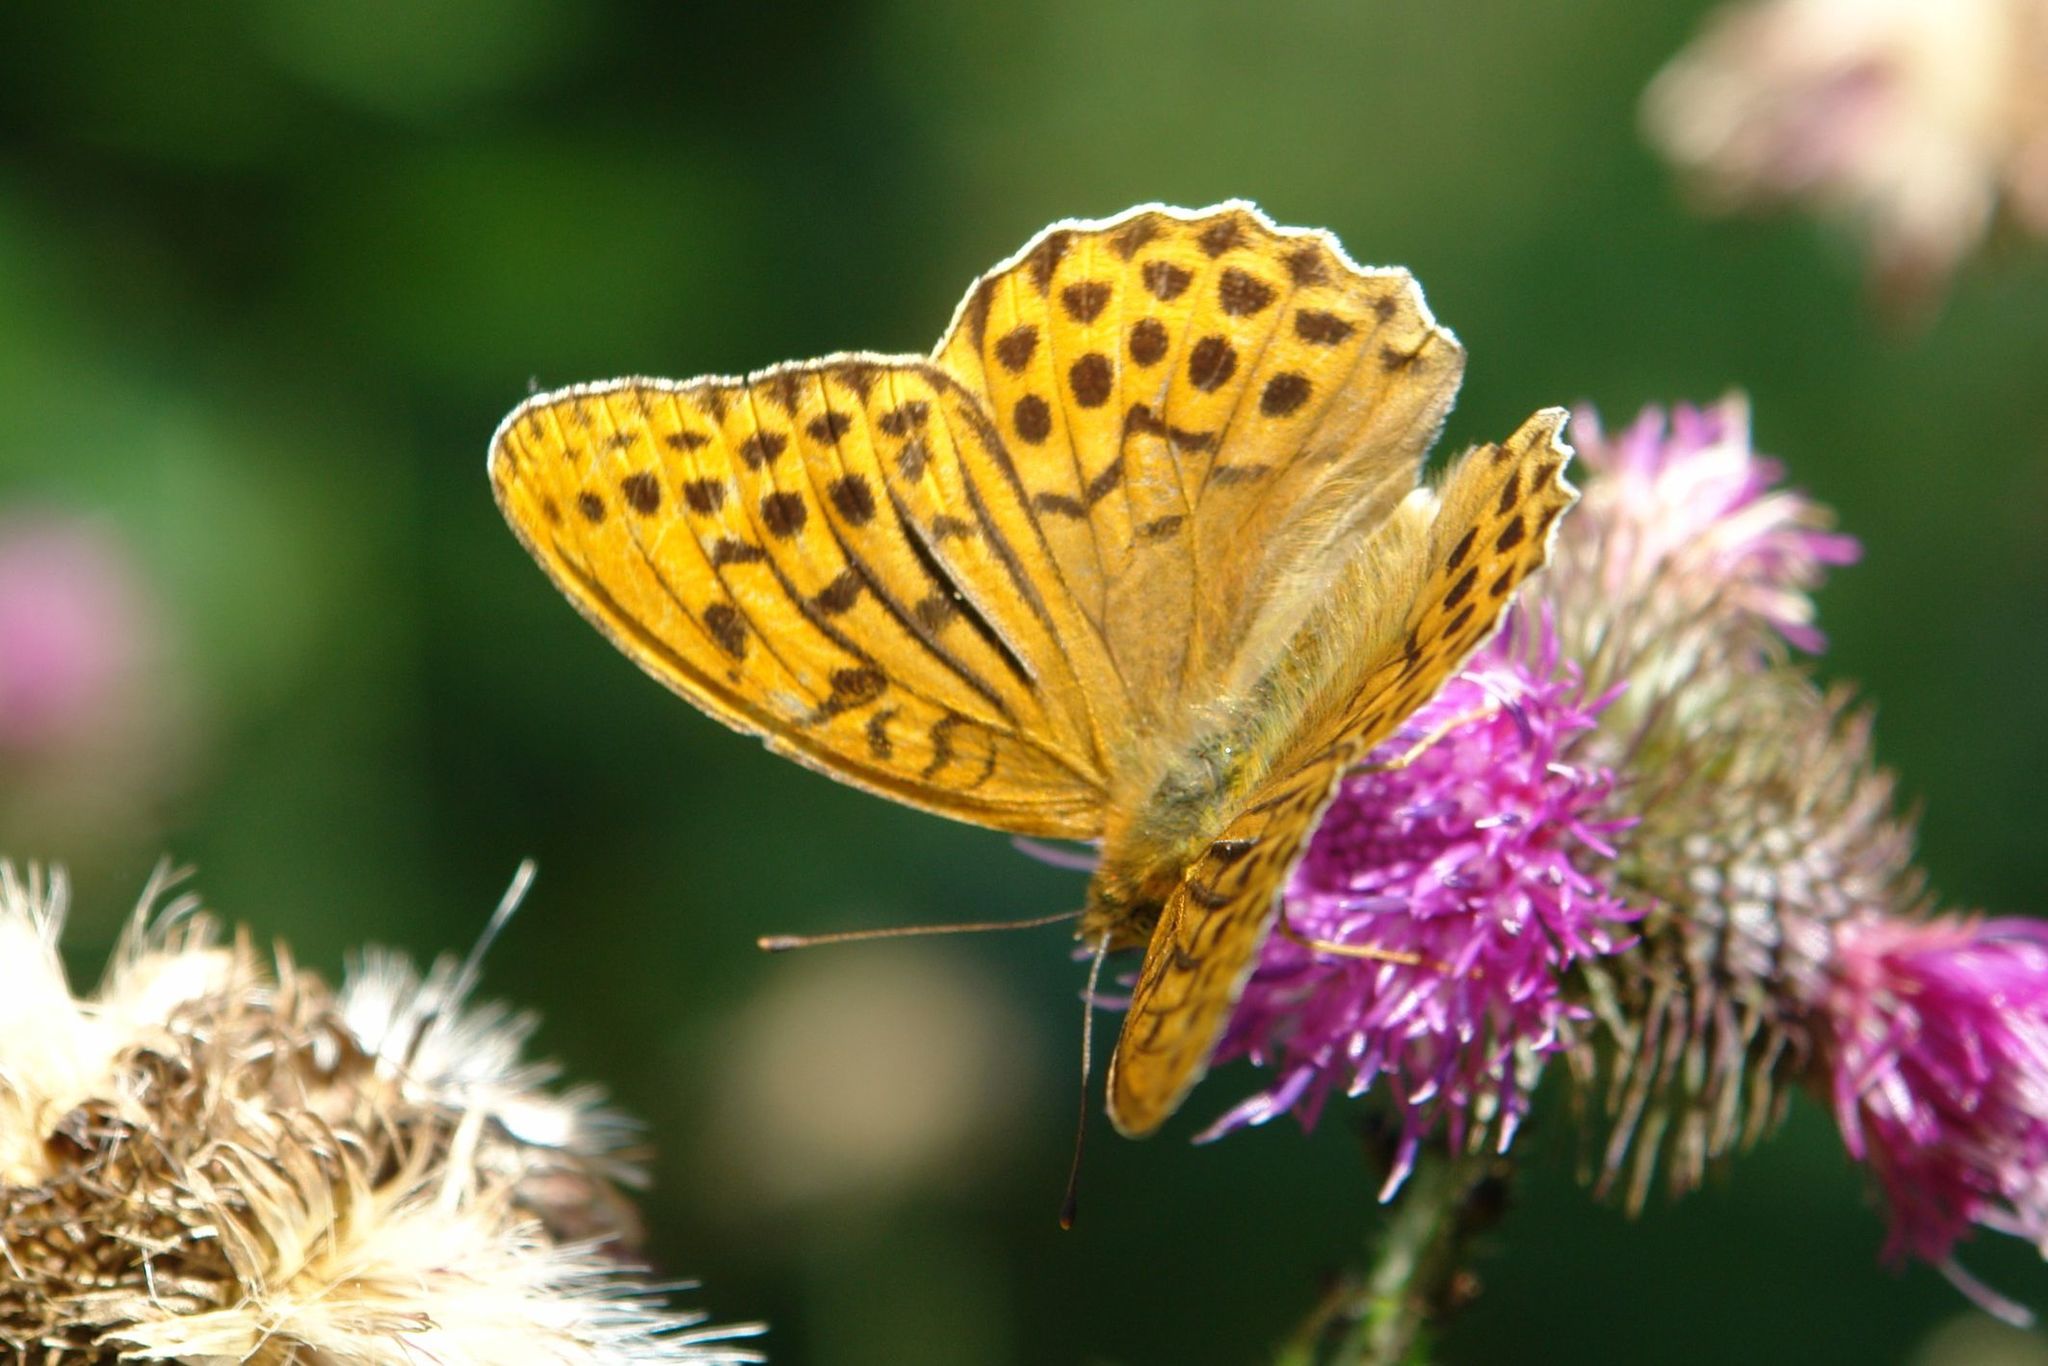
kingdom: Animalia
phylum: Arthropoda
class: Insecta
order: Lepidoptera
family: Nymphalidae
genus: Argynnis
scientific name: Argynnis paphia
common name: Silver-washed fritillary
